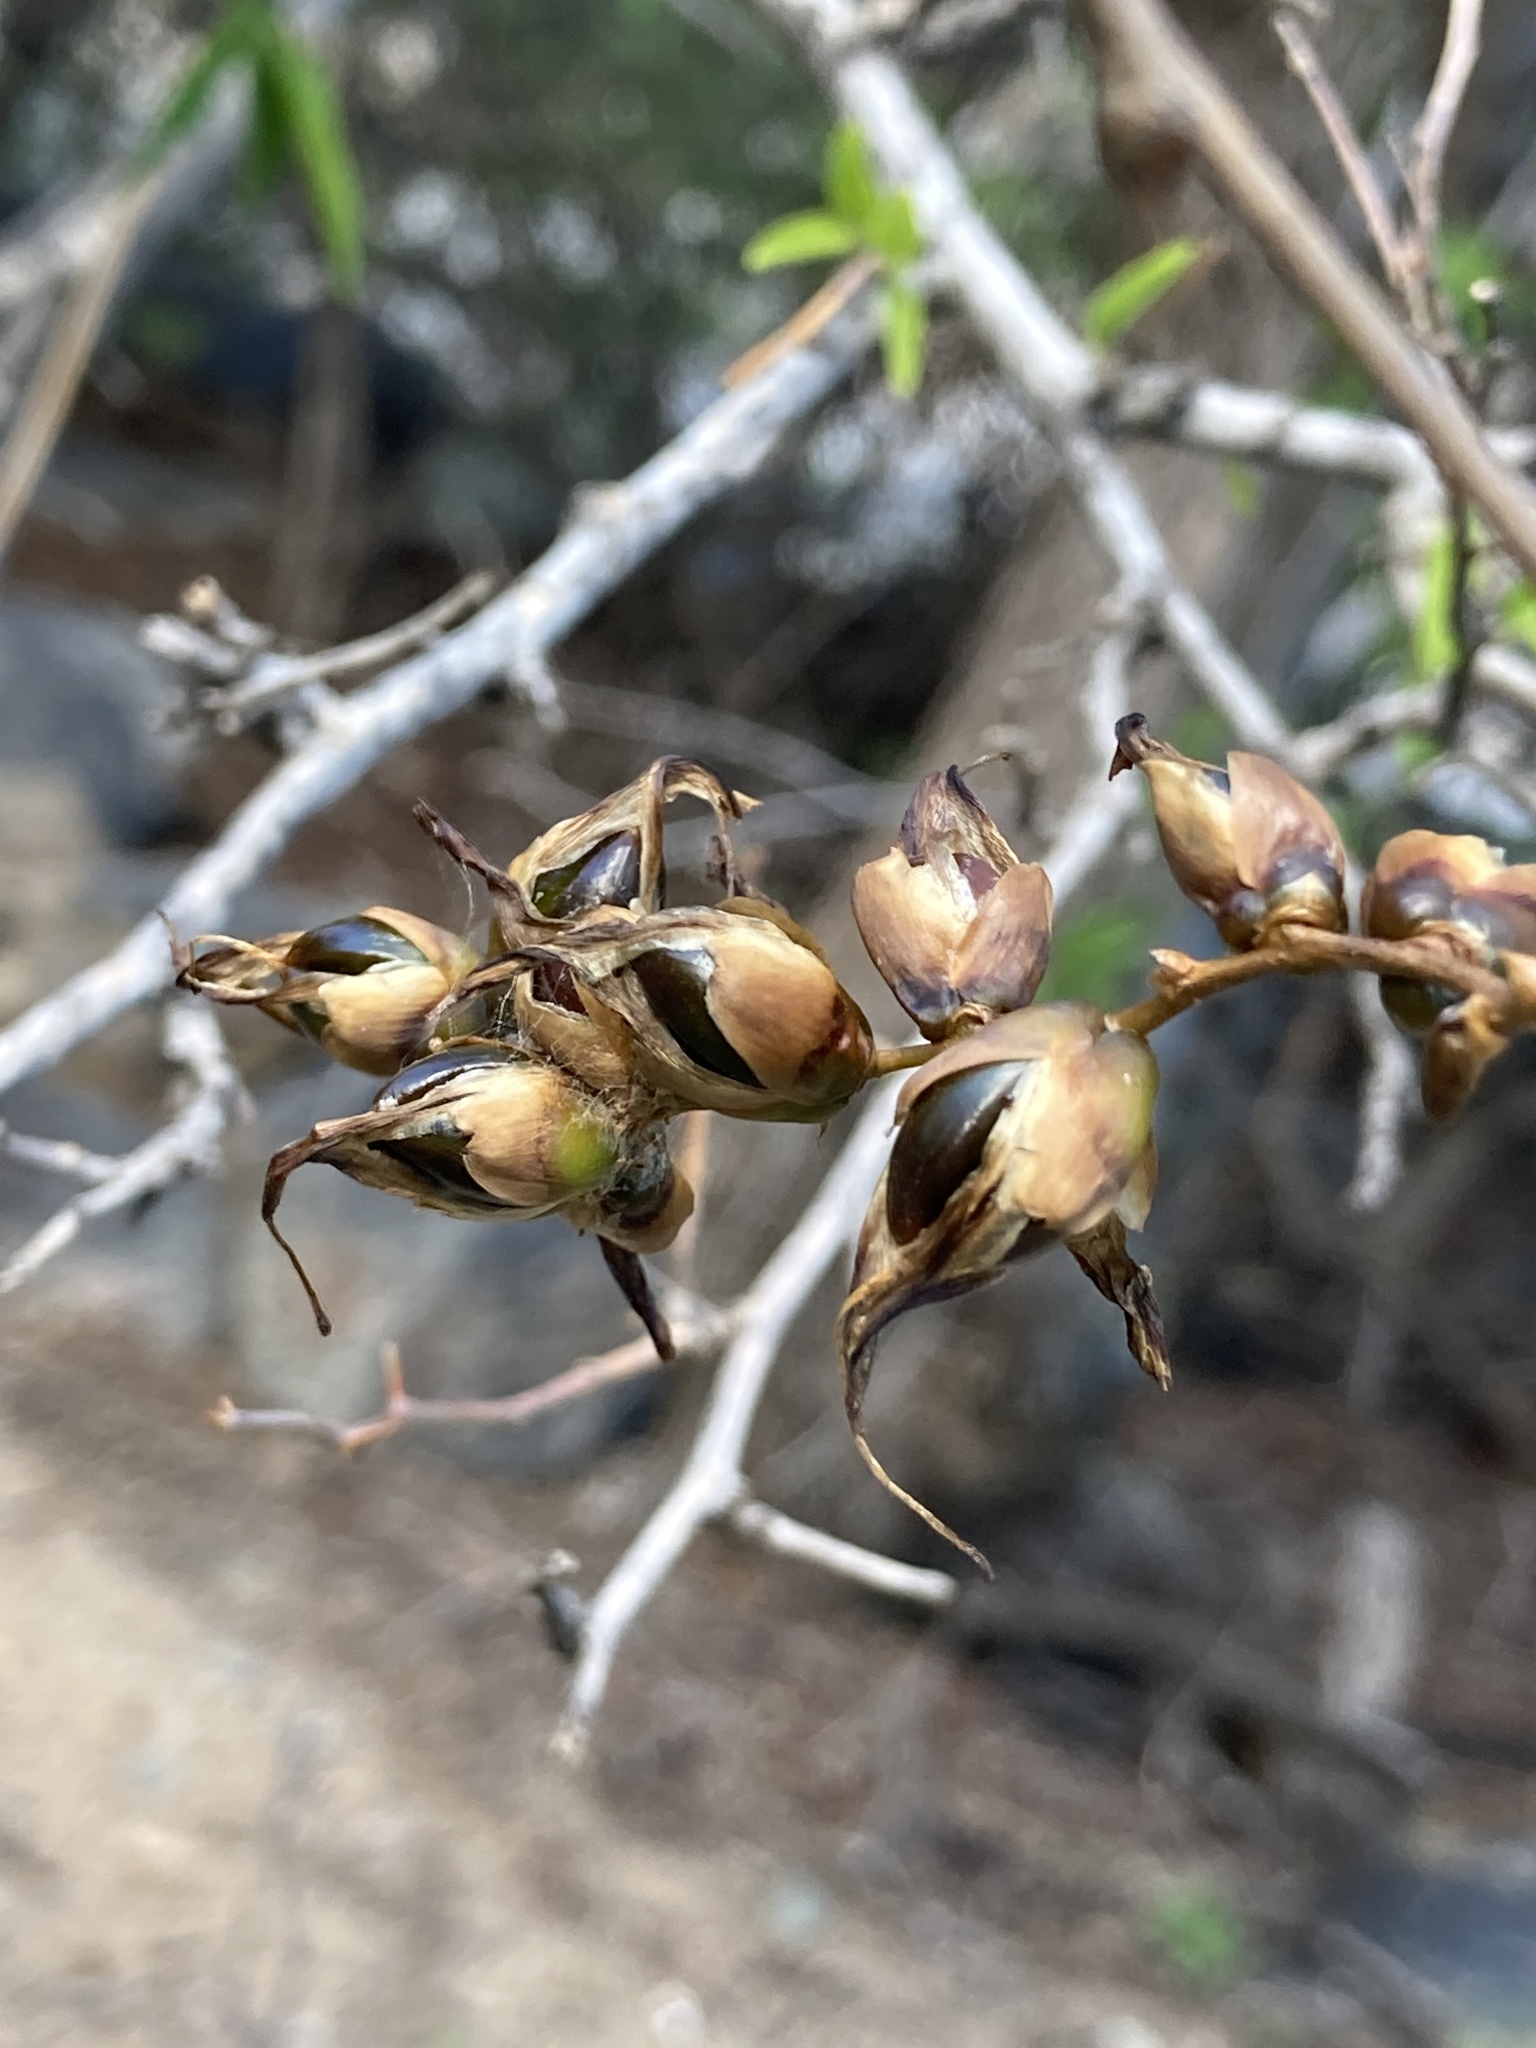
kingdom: Plantae
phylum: Tracheophyta
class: Liliopsida
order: Poales
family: Bromeliaceae
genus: Deuterocohnia
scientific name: Deuterocohnia longipetala
